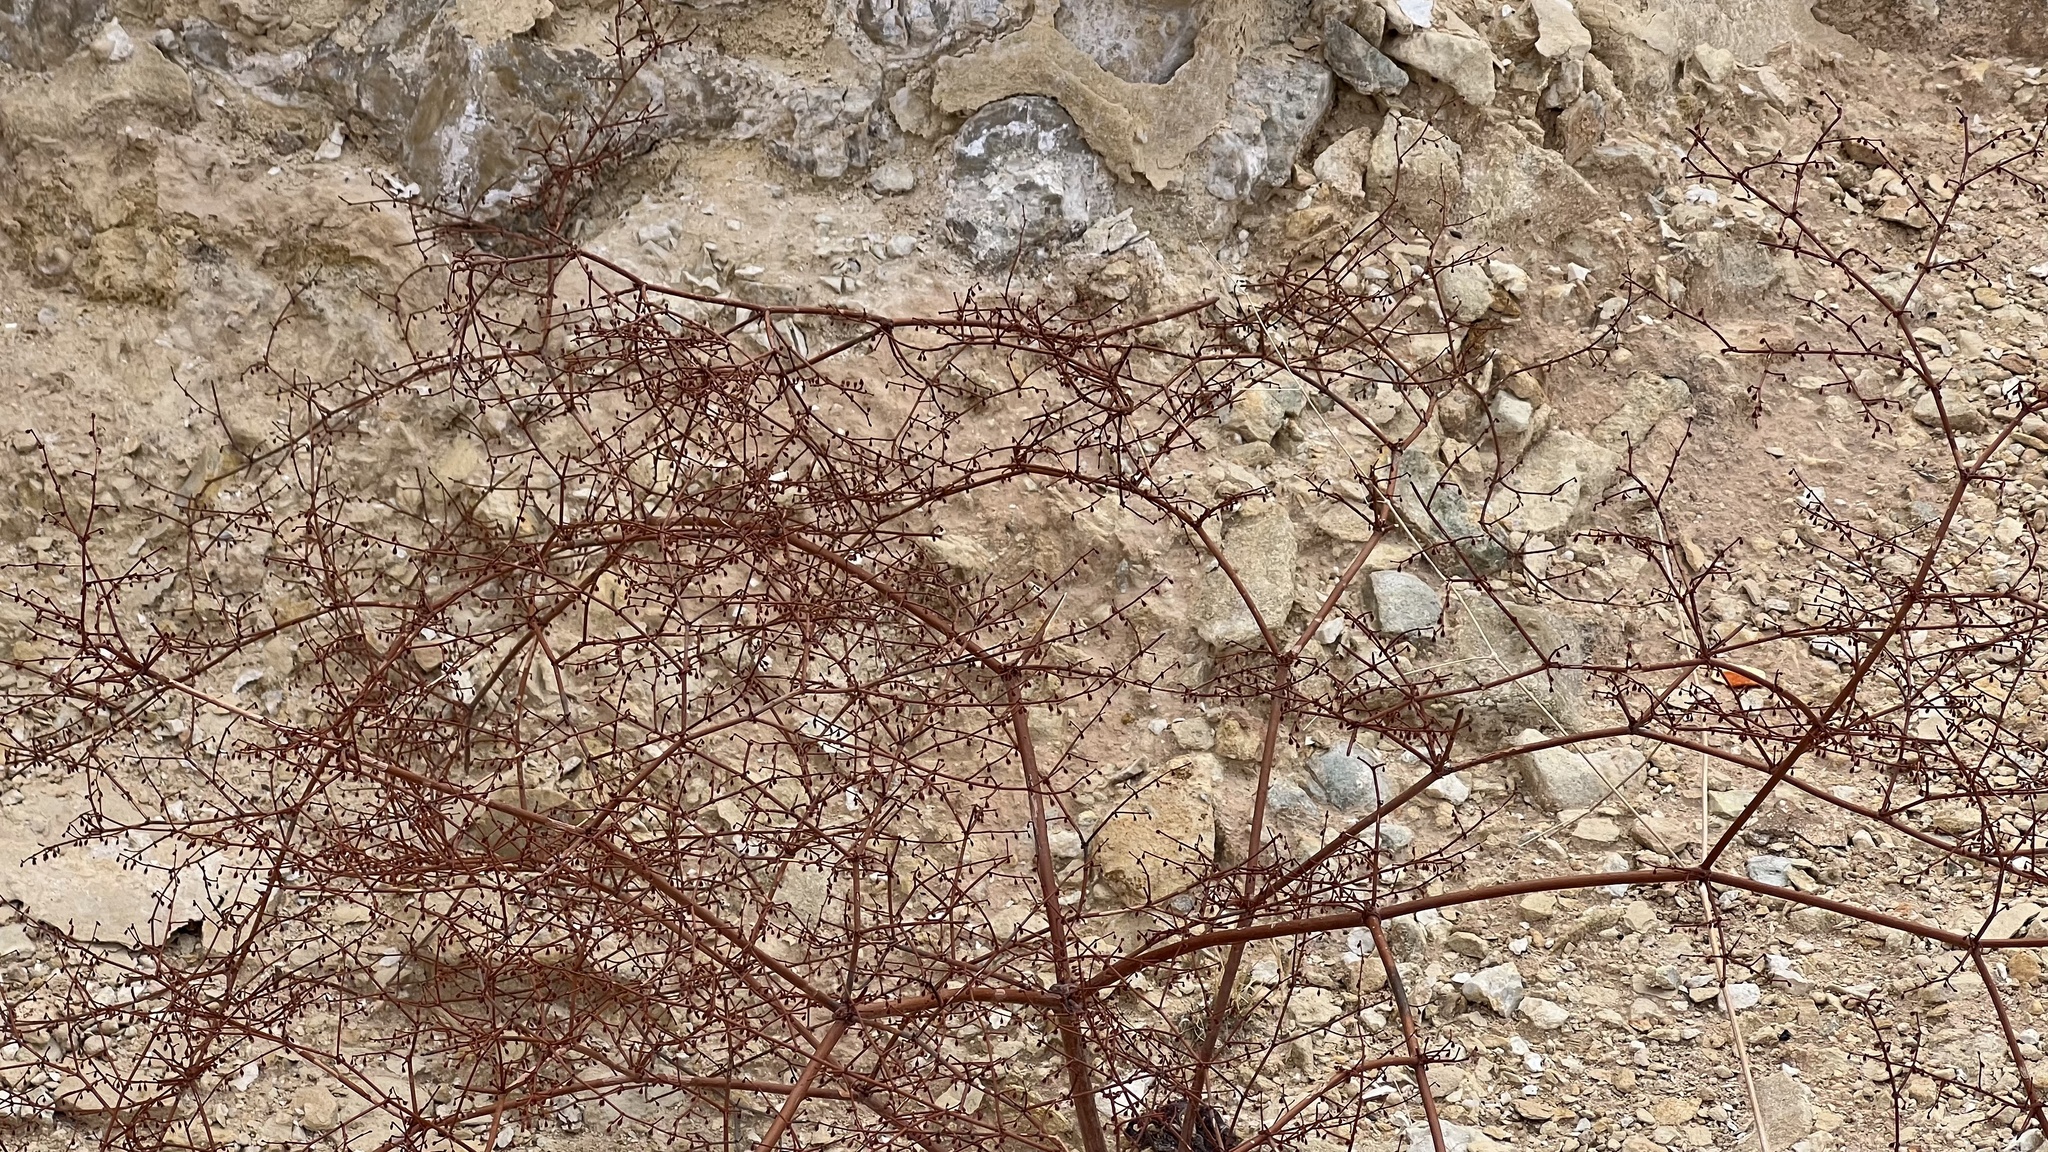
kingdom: Plantae
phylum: Tracheophyta
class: Magnoliopsida
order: Caryophyllales
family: Polygonaceae
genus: Eriogonum
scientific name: Eriogonum deflexum
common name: Skeleton-weed
